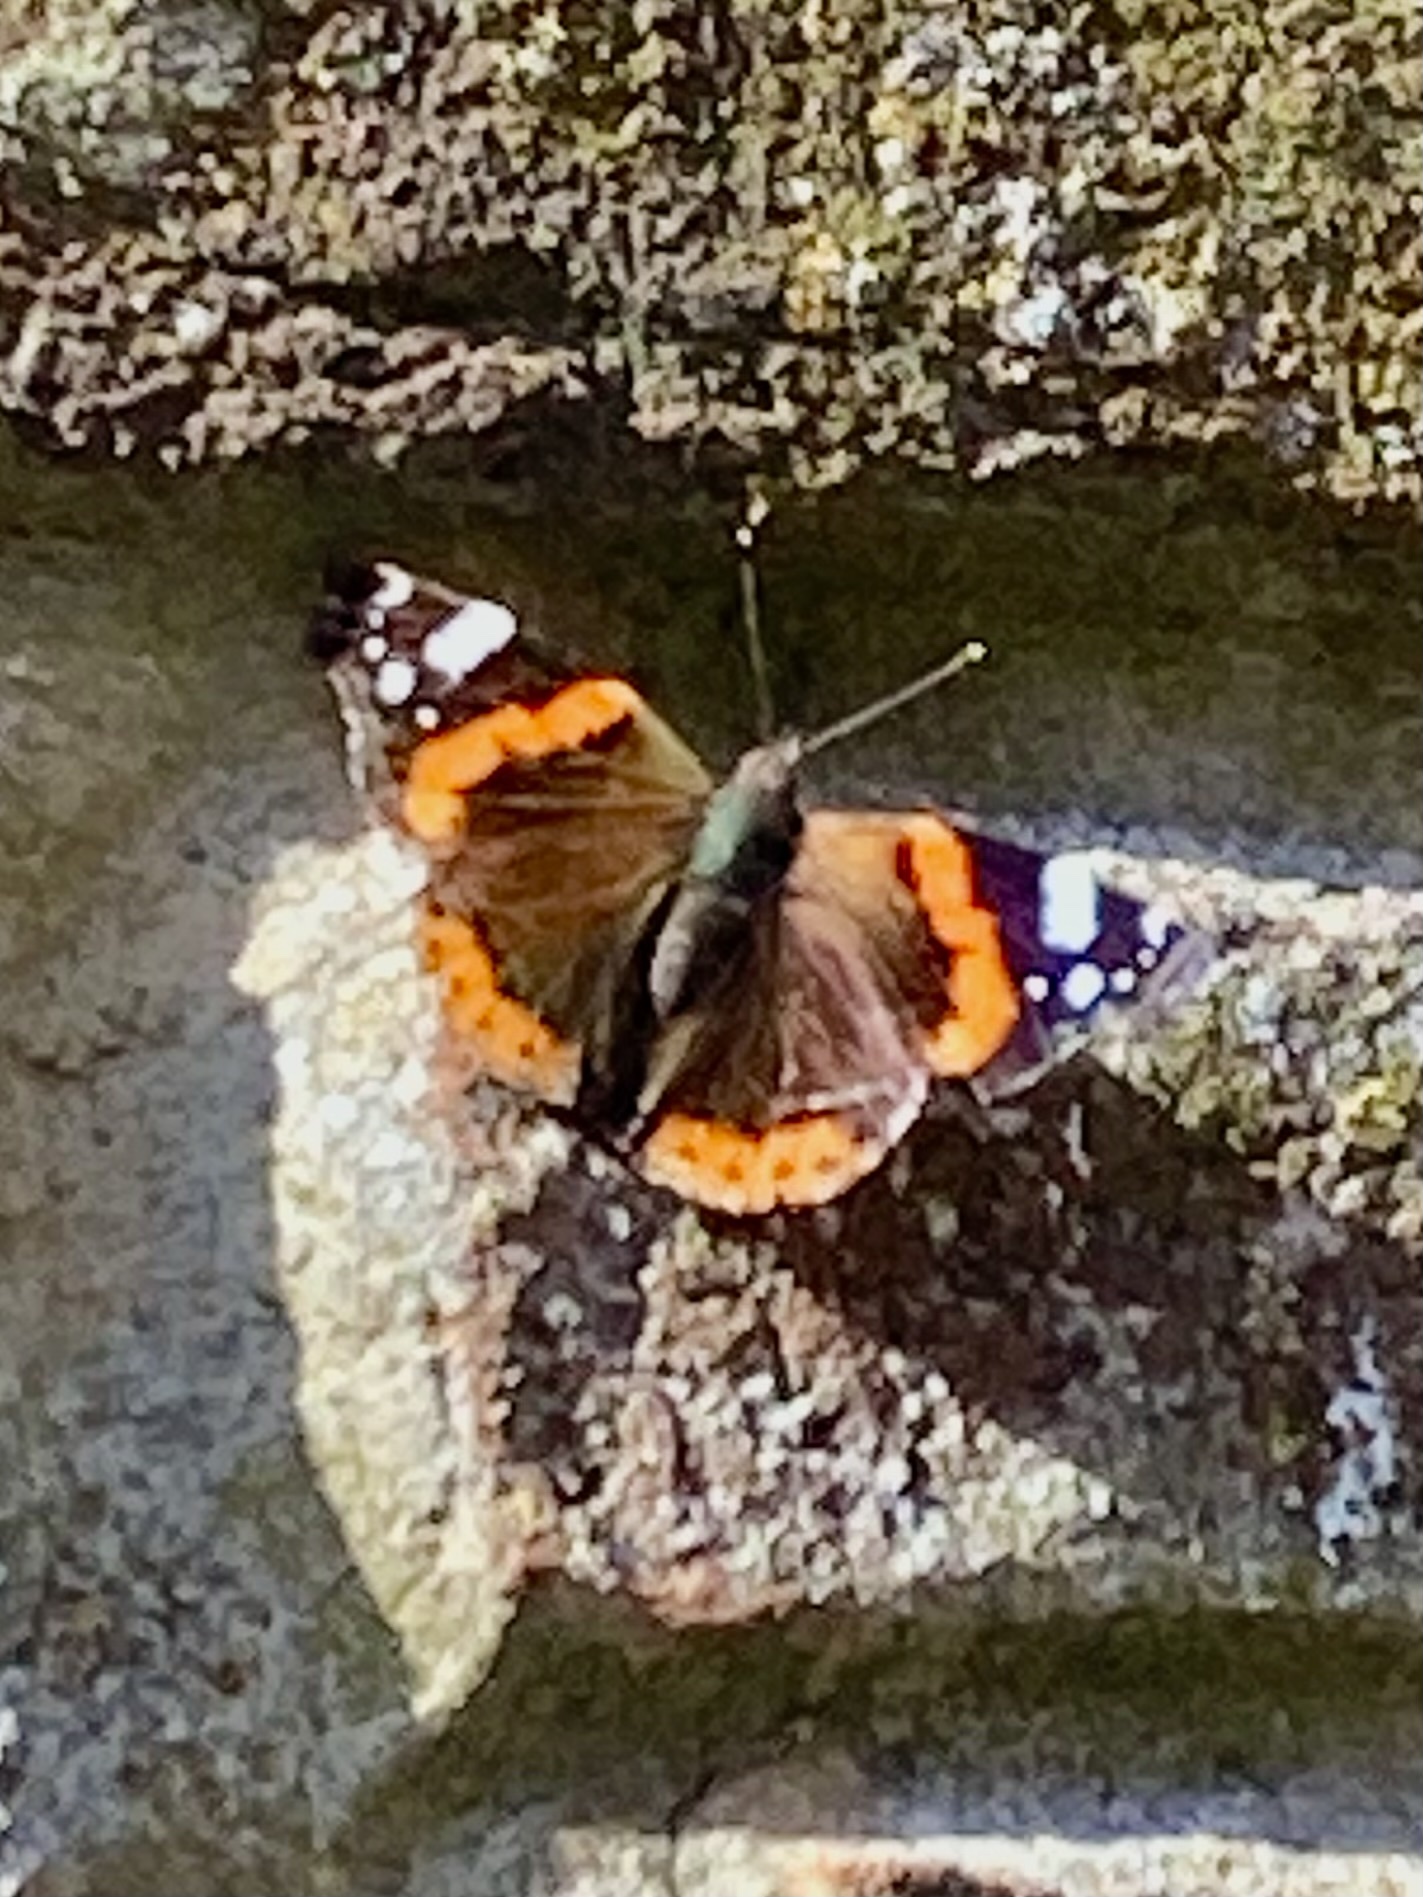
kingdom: Animalia
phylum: Arthropoda
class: Insecta
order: Lepidoptera
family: Nymphalidae
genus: Vanessa
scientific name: Vanessa atalanta
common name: Red admiral
